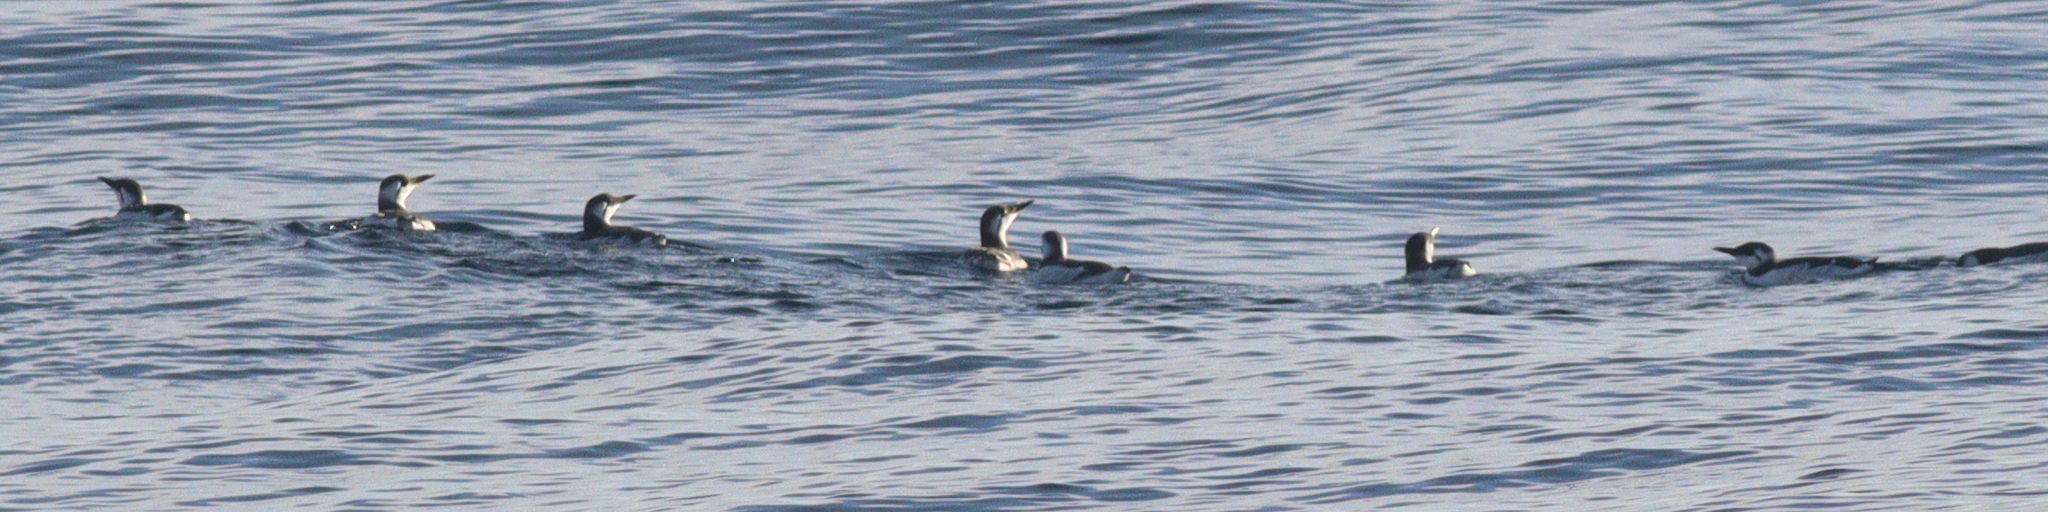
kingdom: Animalia
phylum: Chordata
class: Aves
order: Charadriiformes
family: Alcidae
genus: Uria
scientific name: Uria aalge
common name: Common murre
